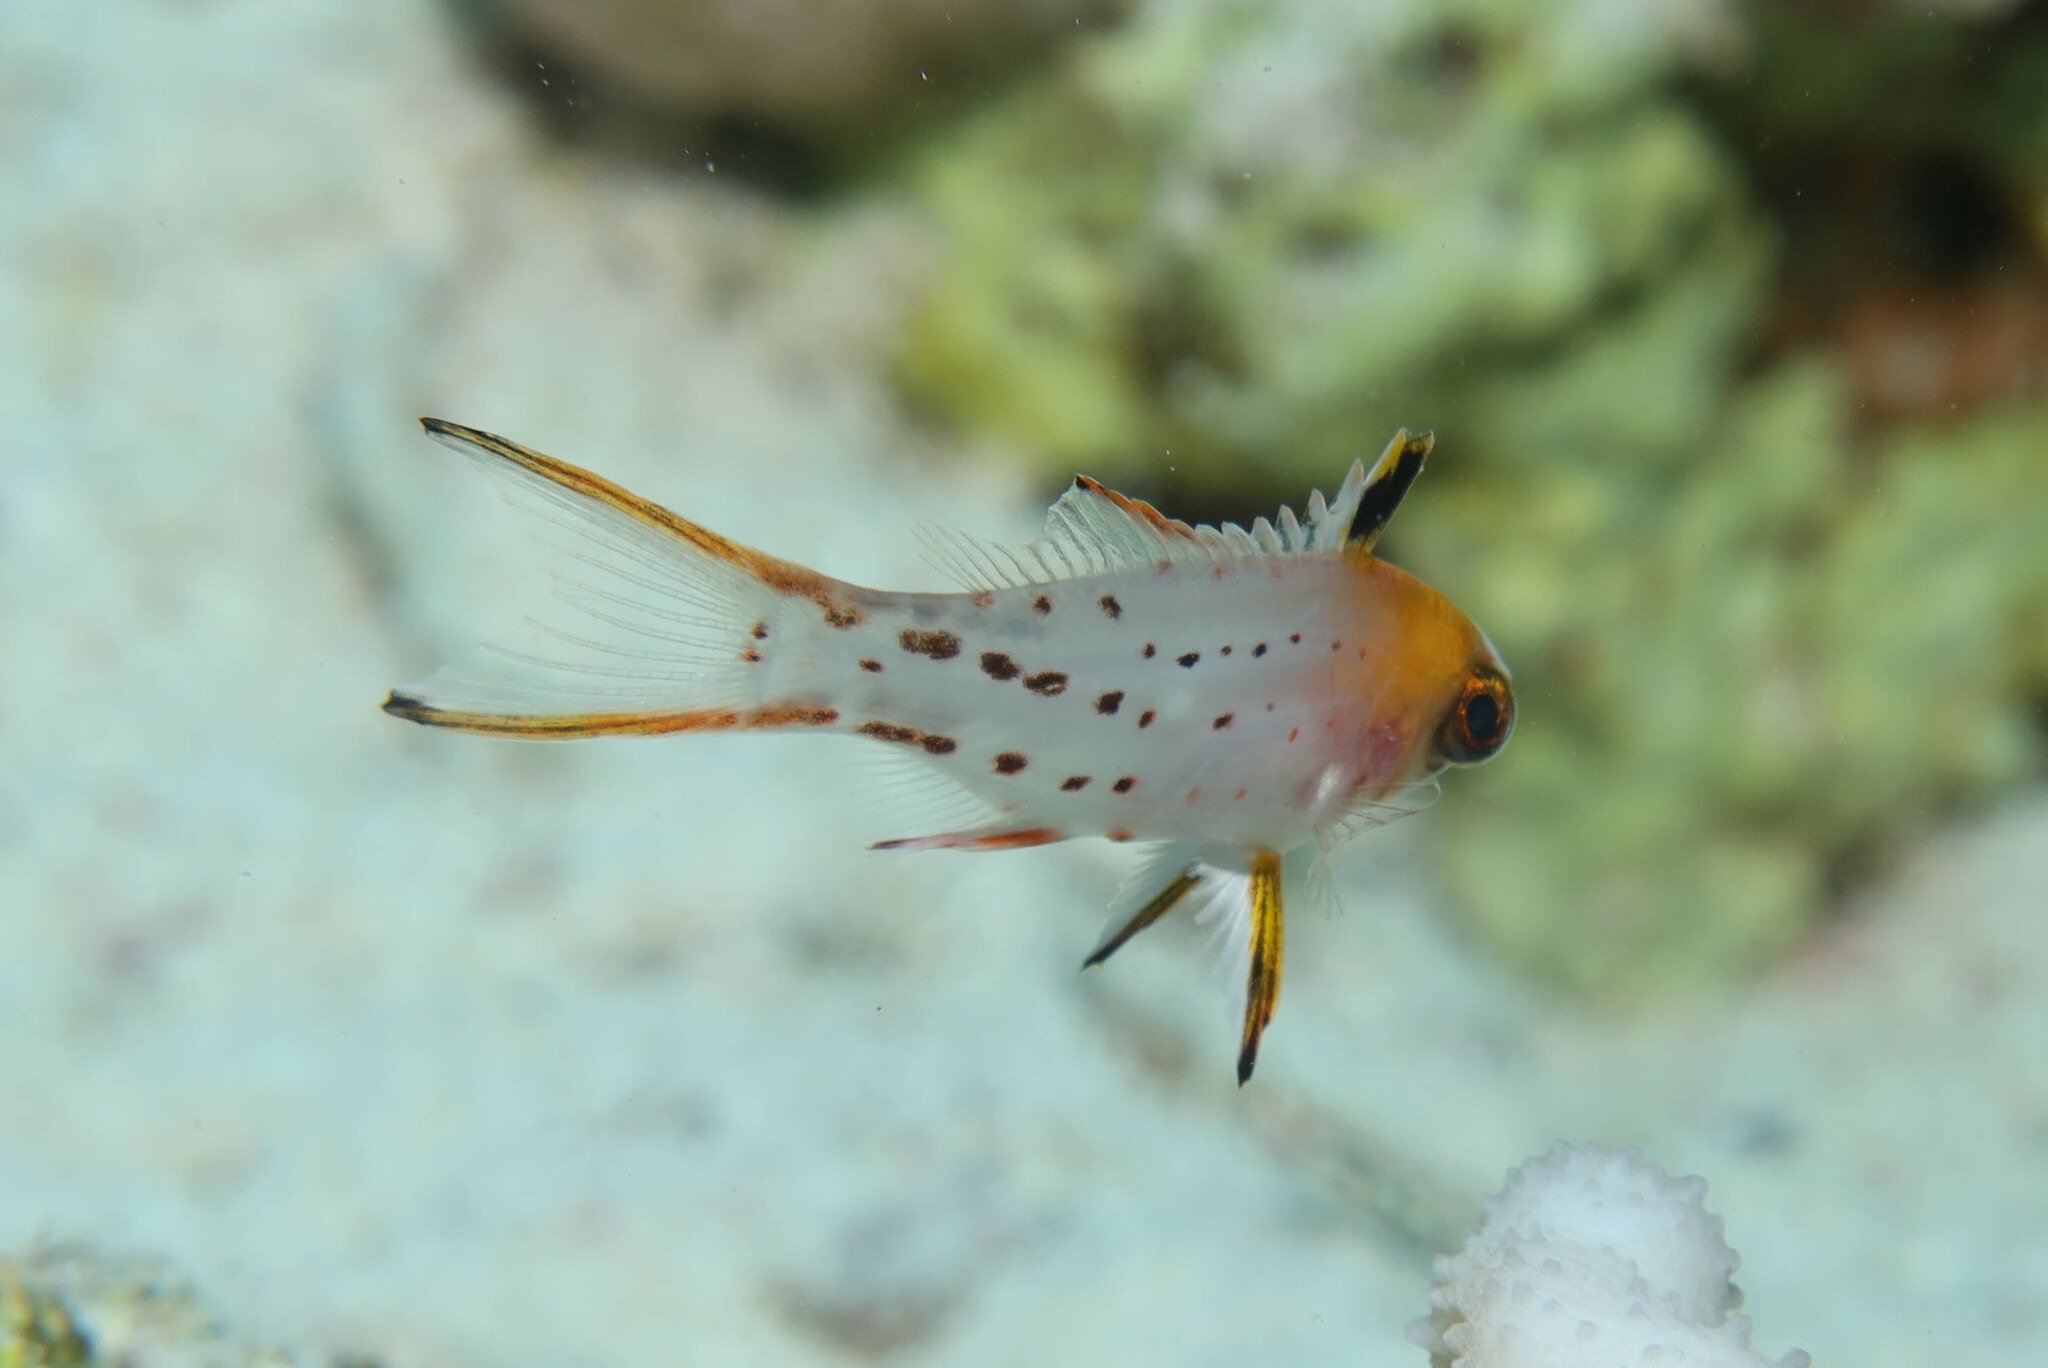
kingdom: Animalia
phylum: Chordata
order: Perciformes
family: Labridae
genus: Bodianus
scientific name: Bodianus anthioides
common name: Lyretail hogfish
